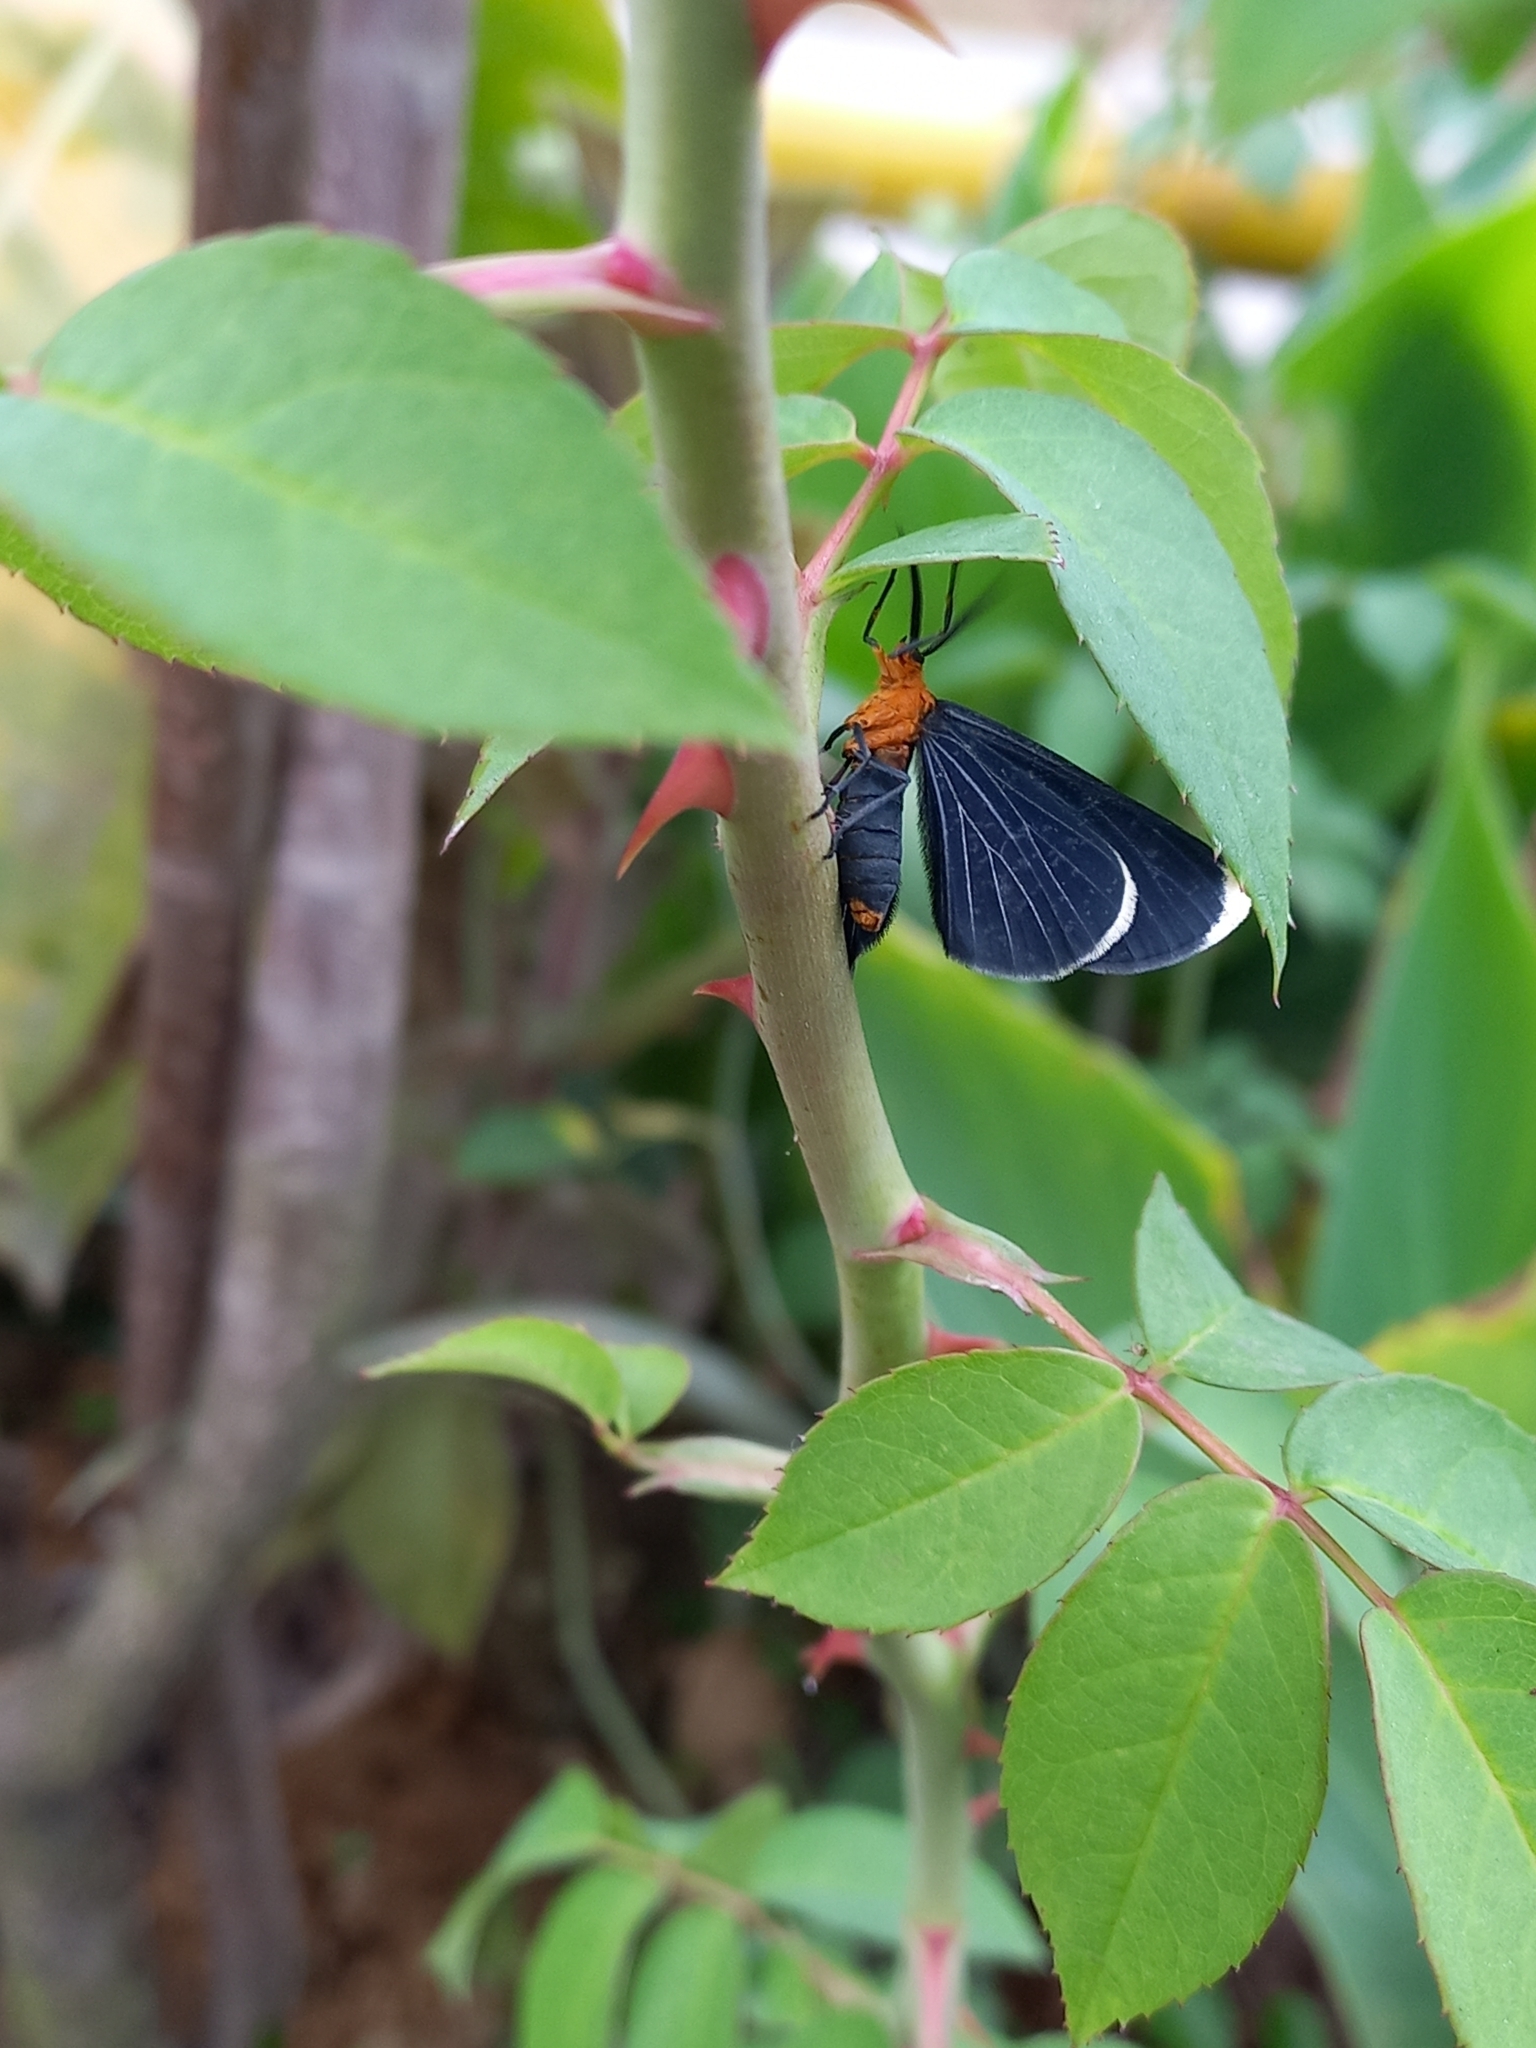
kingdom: Animalia
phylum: Arthropoda
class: Insecta
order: Lepidoptera
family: Geometridae
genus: Melanchroia
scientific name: Melanchroia chephise
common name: White-tipped black
